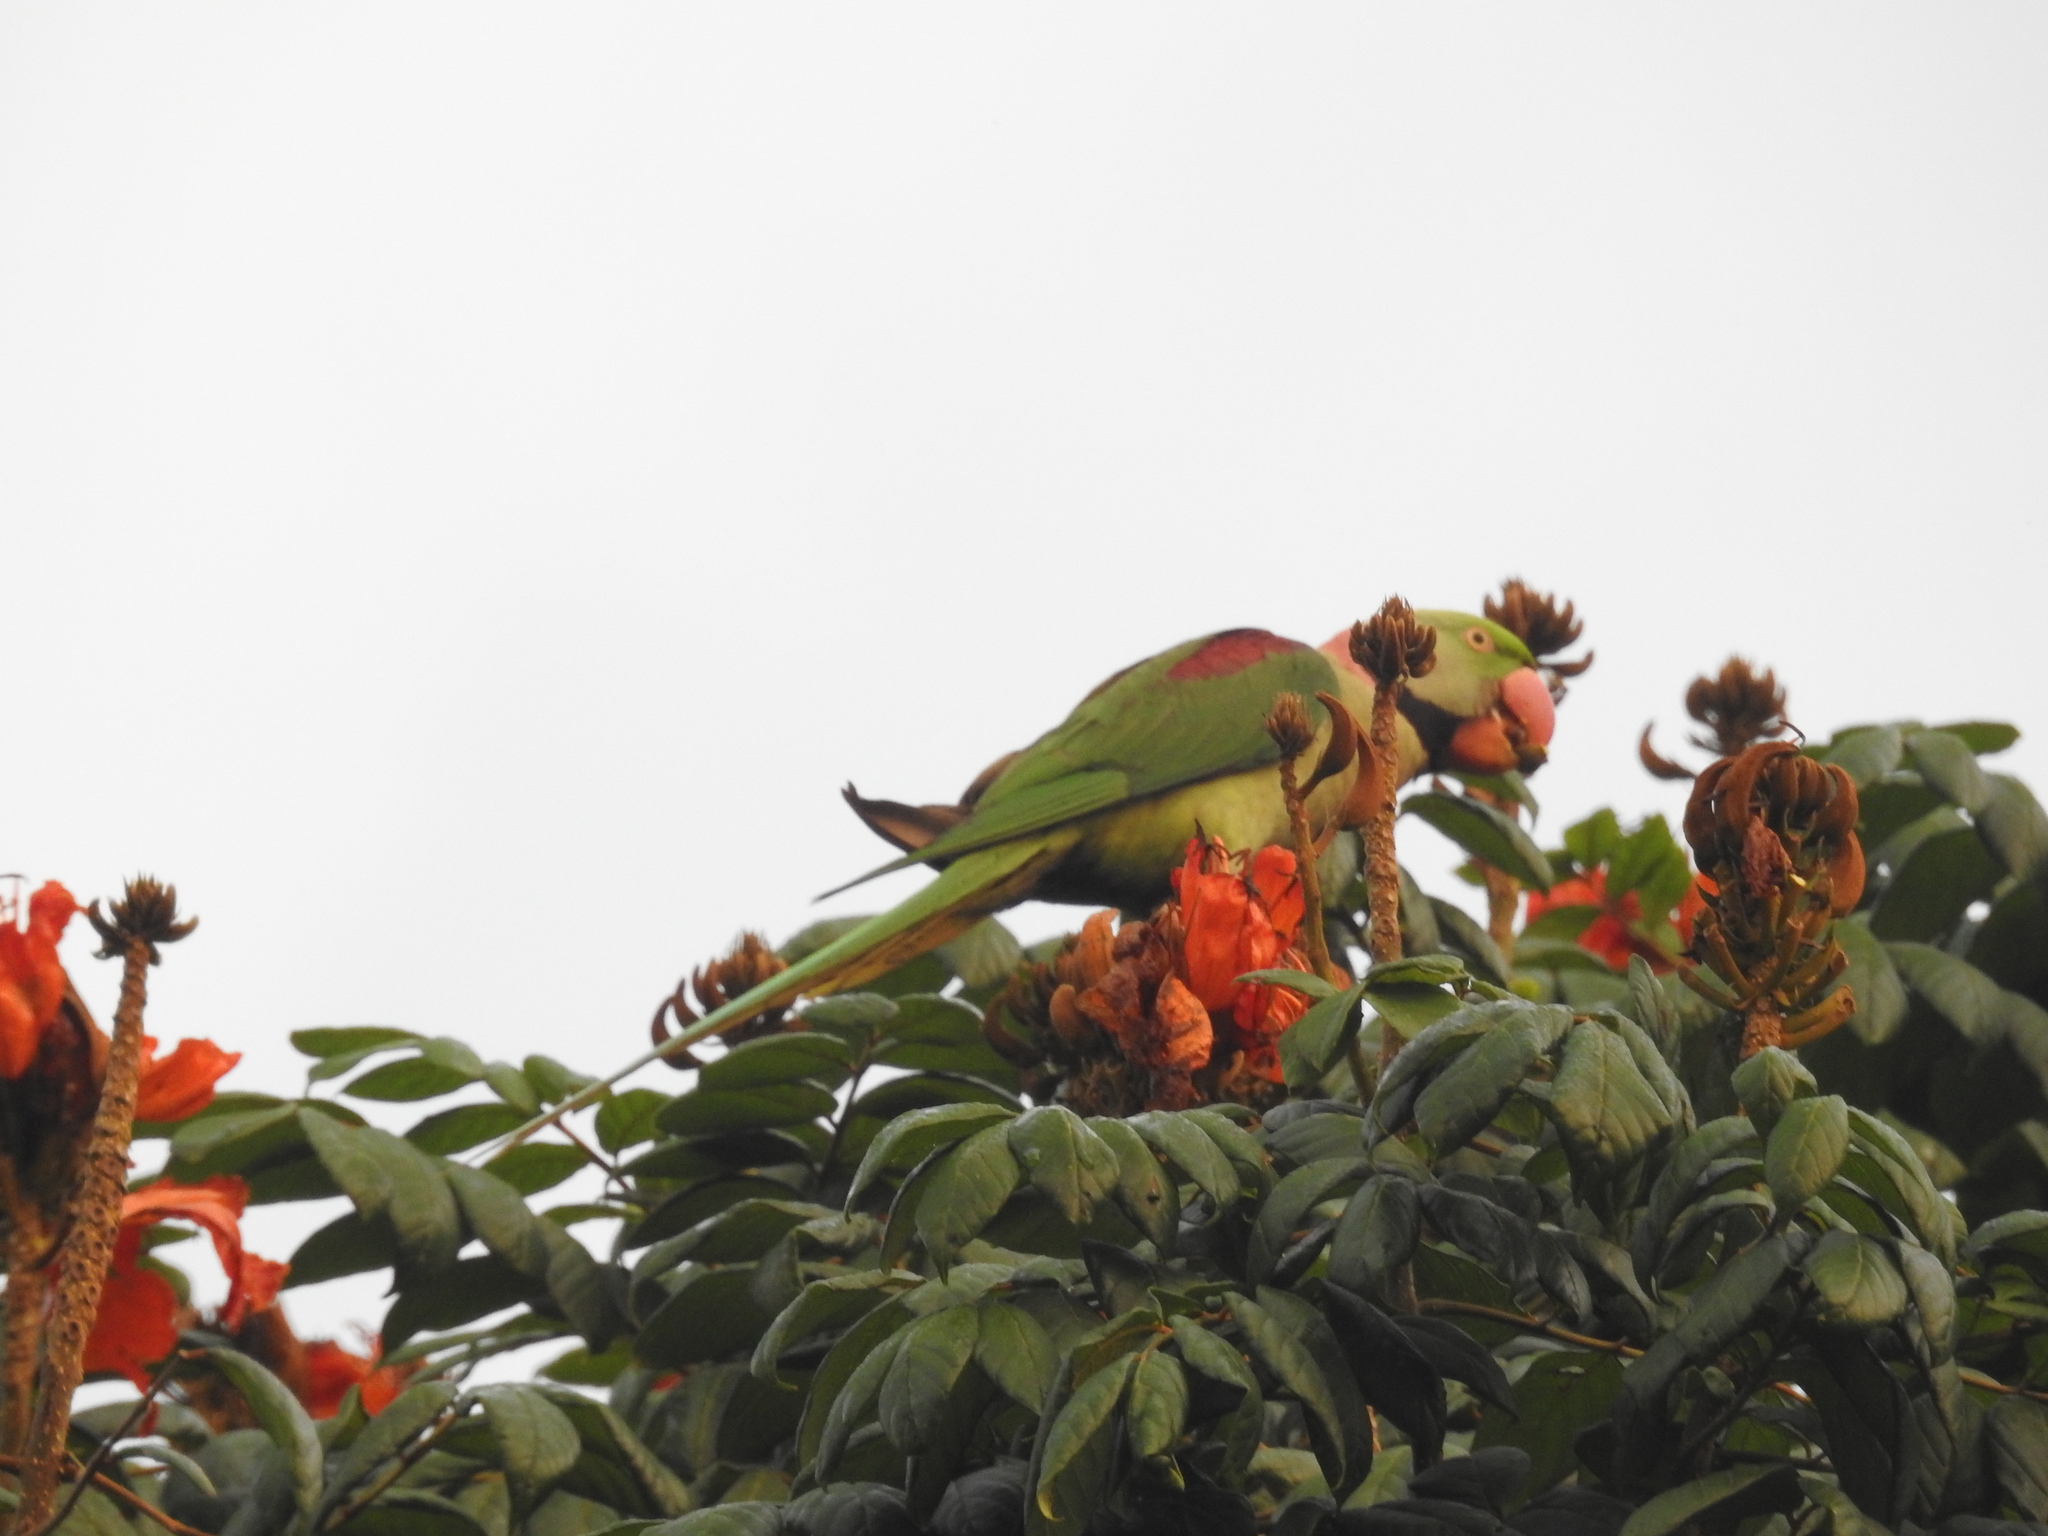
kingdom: Animalia
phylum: Chordata
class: Aves
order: Psittaciformes
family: Psittacidae
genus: Psittacula
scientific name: Psittacula eupatria
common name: Alexandrine parakeet
